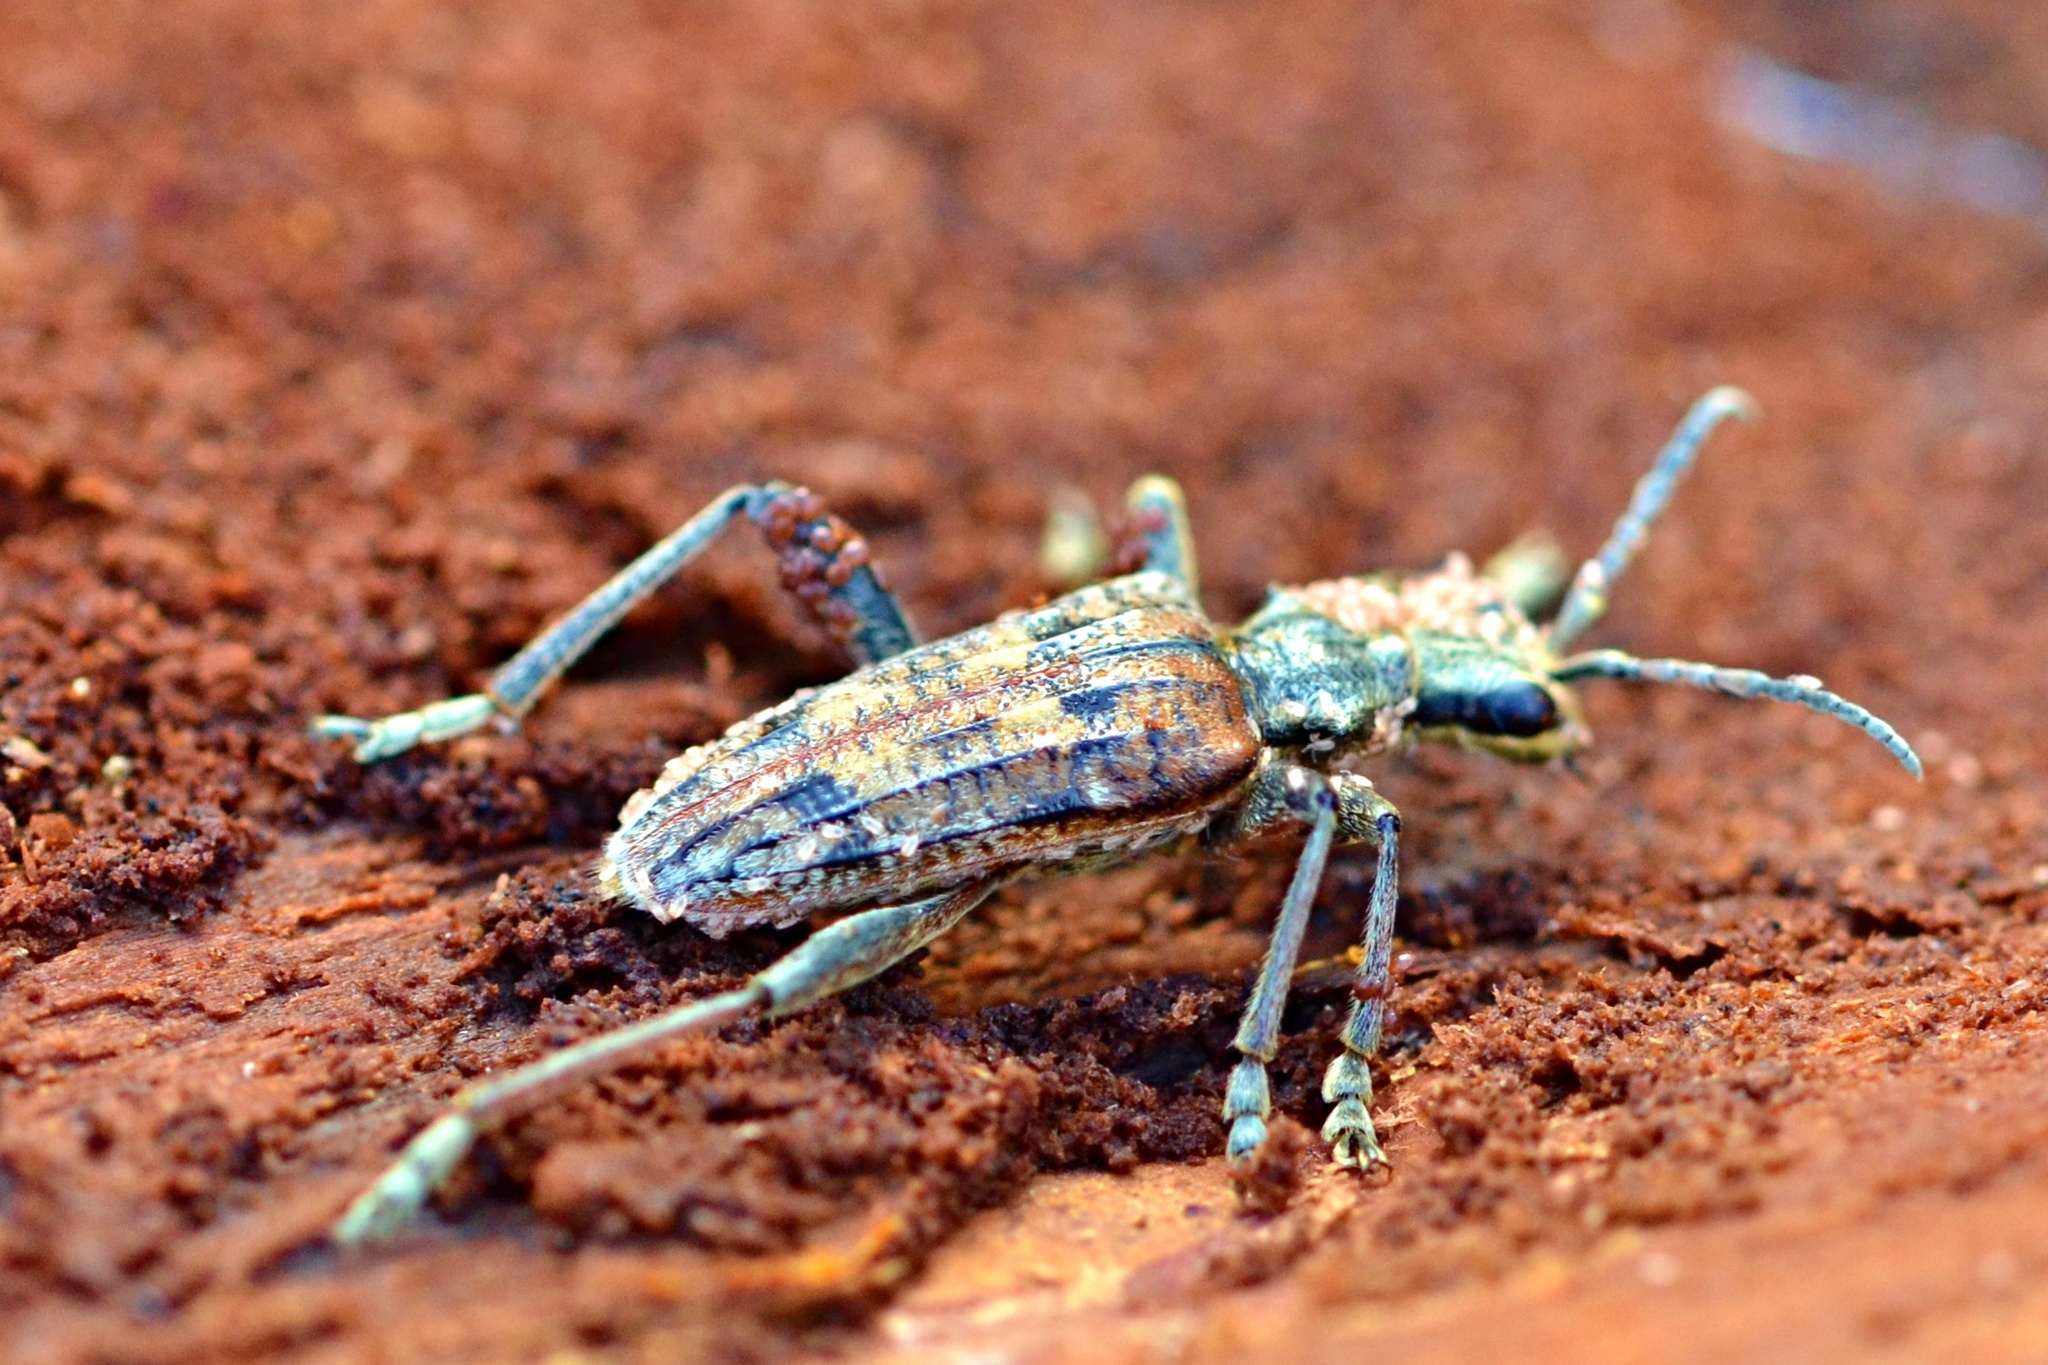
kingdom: Animalia
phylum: Arthropoda
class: Insecta
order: Coleoptera
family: Cerambycidae
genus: Rhagium
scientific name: Rhagium inquisitor
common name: Ribbed pine borer
